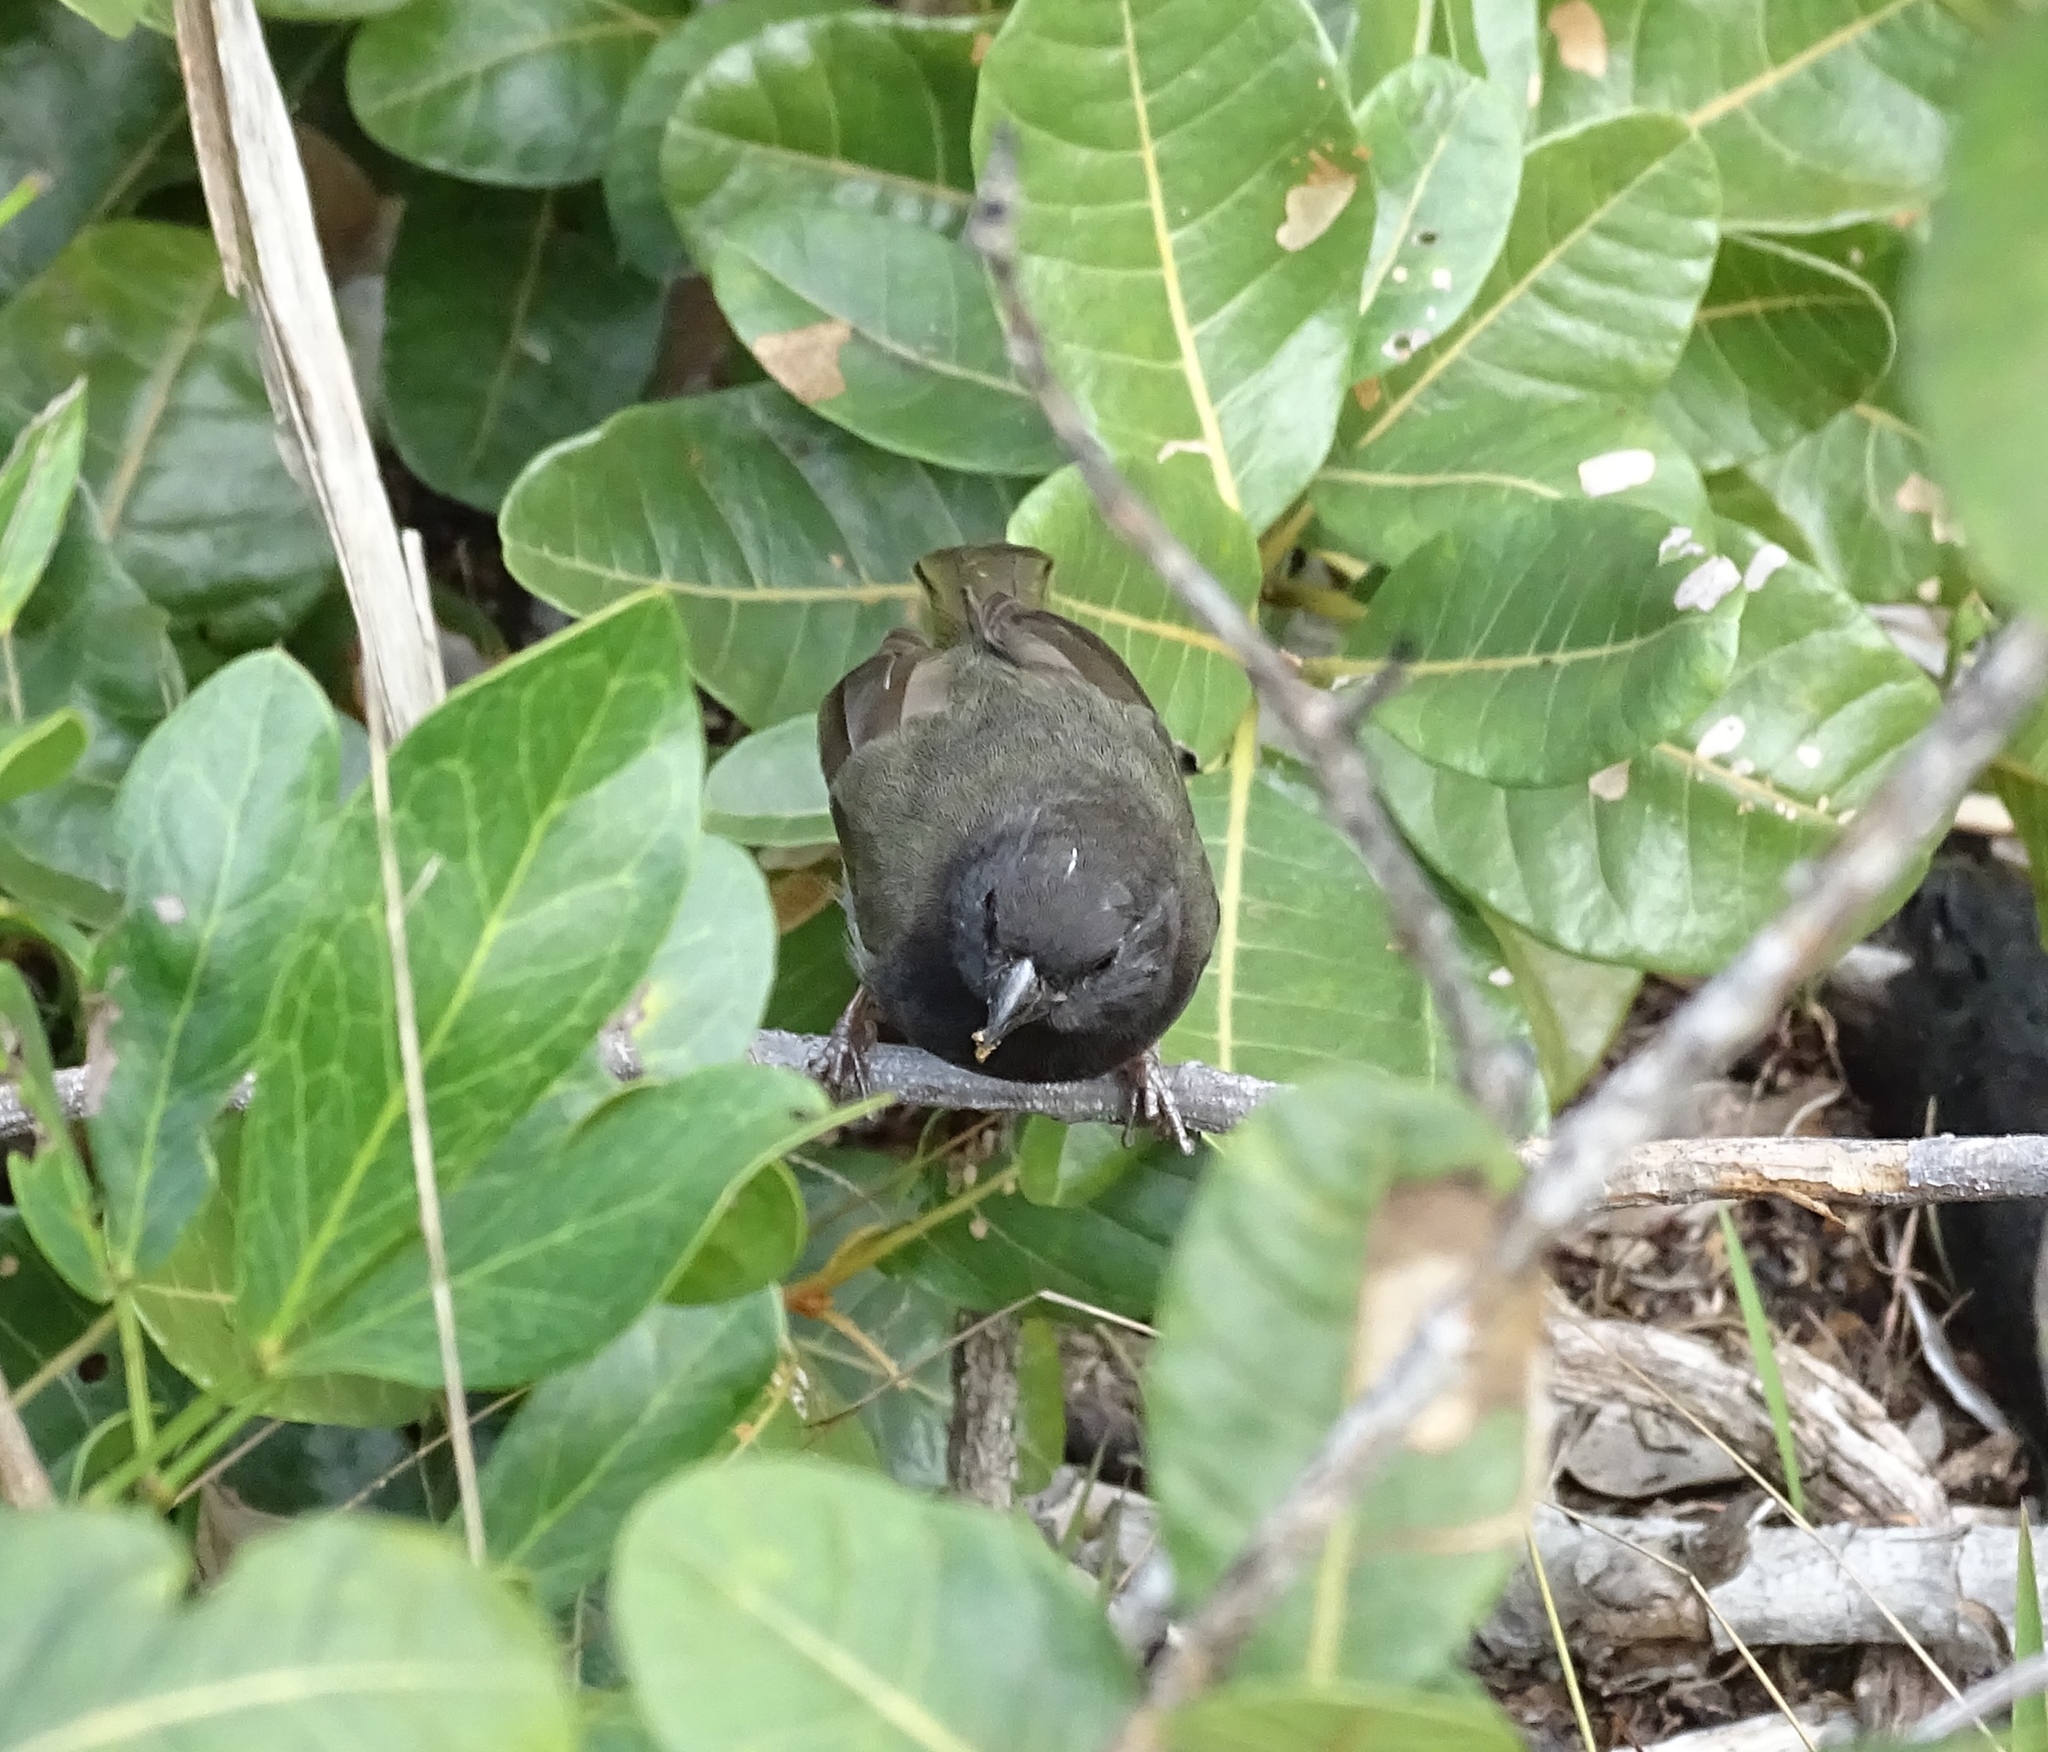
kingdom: Animalia
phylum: Chordata
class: Aves
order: Passeriformes
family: Thraupidae
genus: Melanospiza
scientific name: Melanospiza bicolor
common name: Black-faced grassquit
